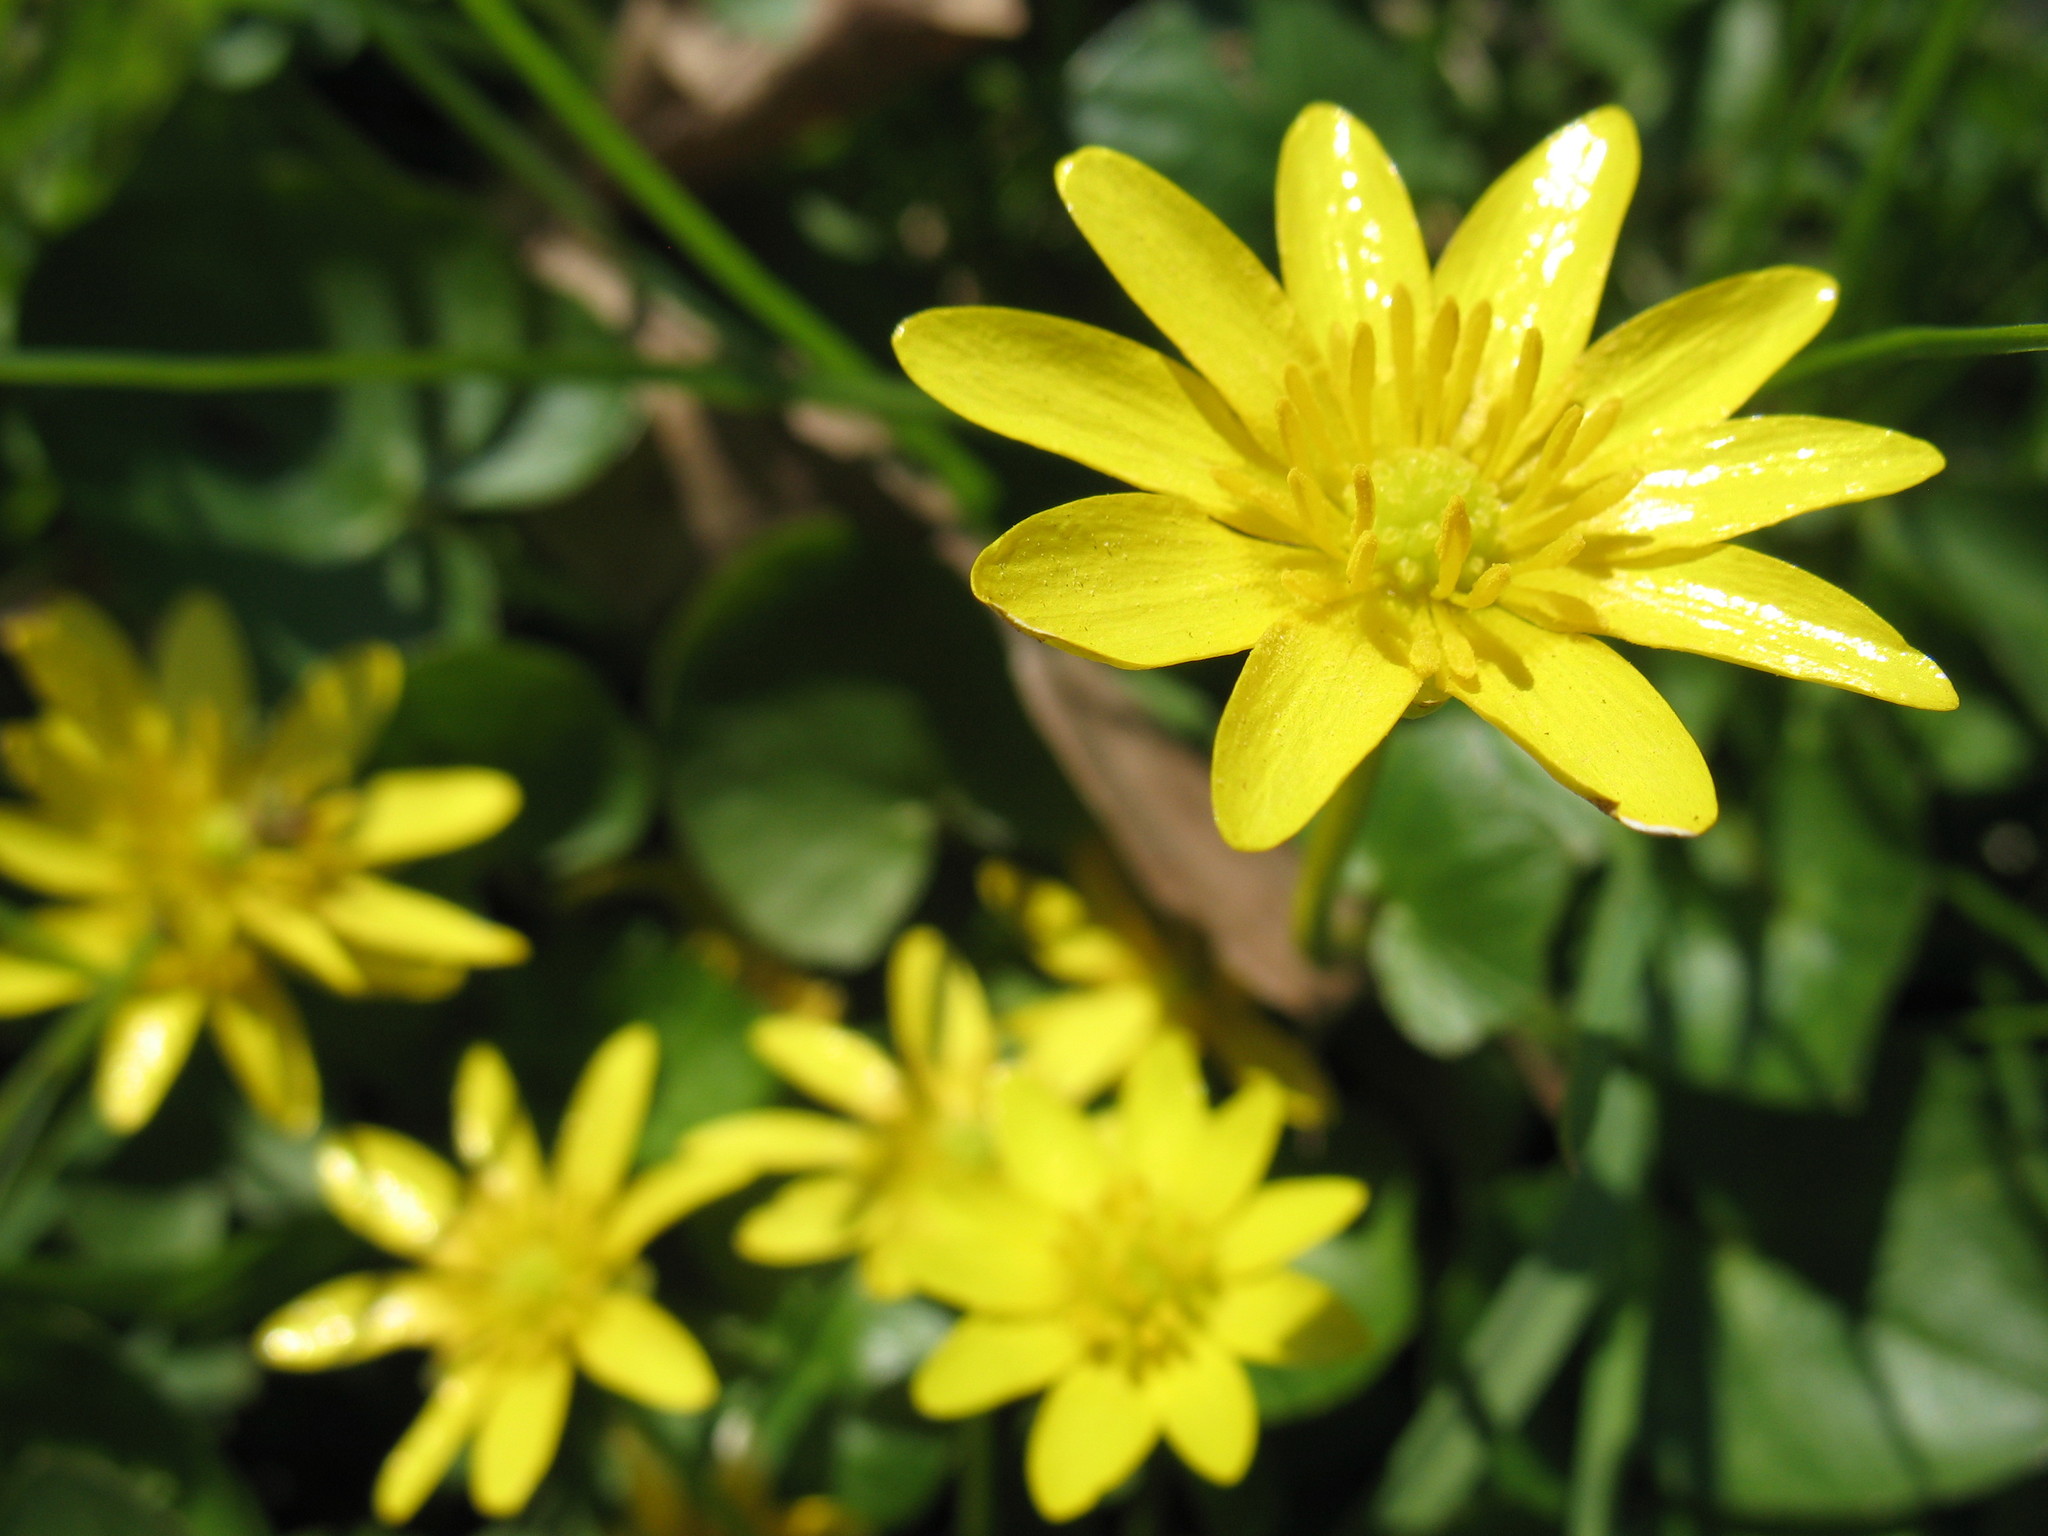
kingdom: Plantae
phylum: Tracheophyta
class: Magnoliopsida
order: Ranunculales
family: Ranunculaceae
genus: Ficaria
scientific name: Ficaria verna
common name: Lesser celandine
